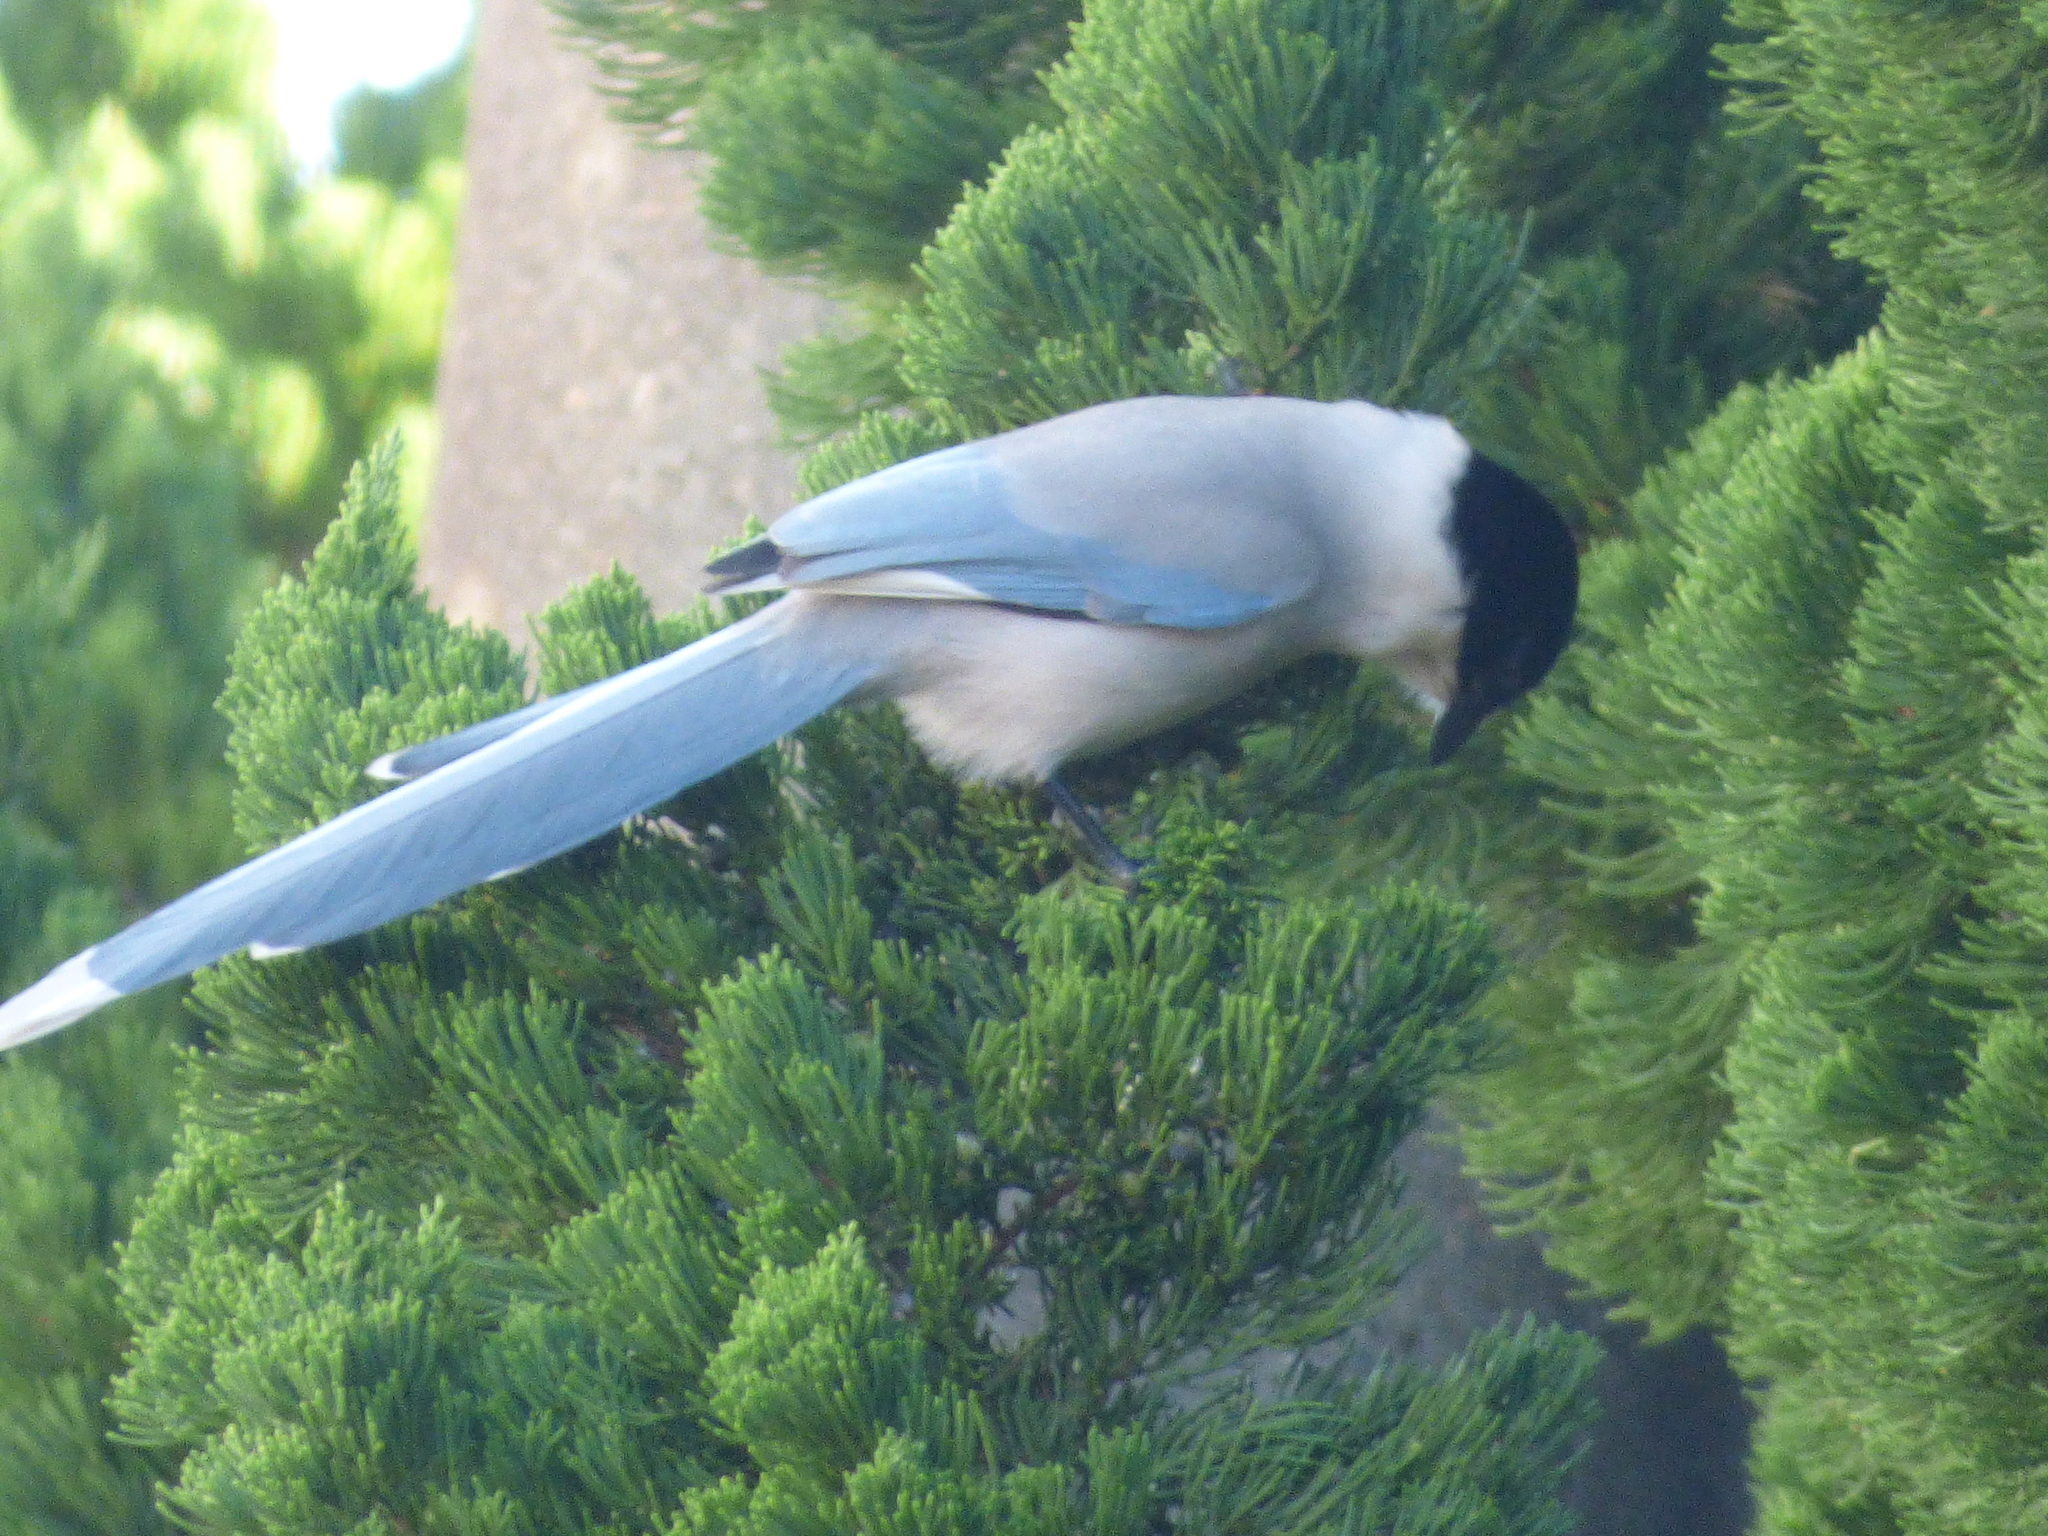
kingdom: Animalia
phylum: Chordata
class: Aves
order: Passeriformes
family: Corvidae
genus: Cyanopica
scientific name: Cyanopica cyanus
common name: Azure-winged magpie
